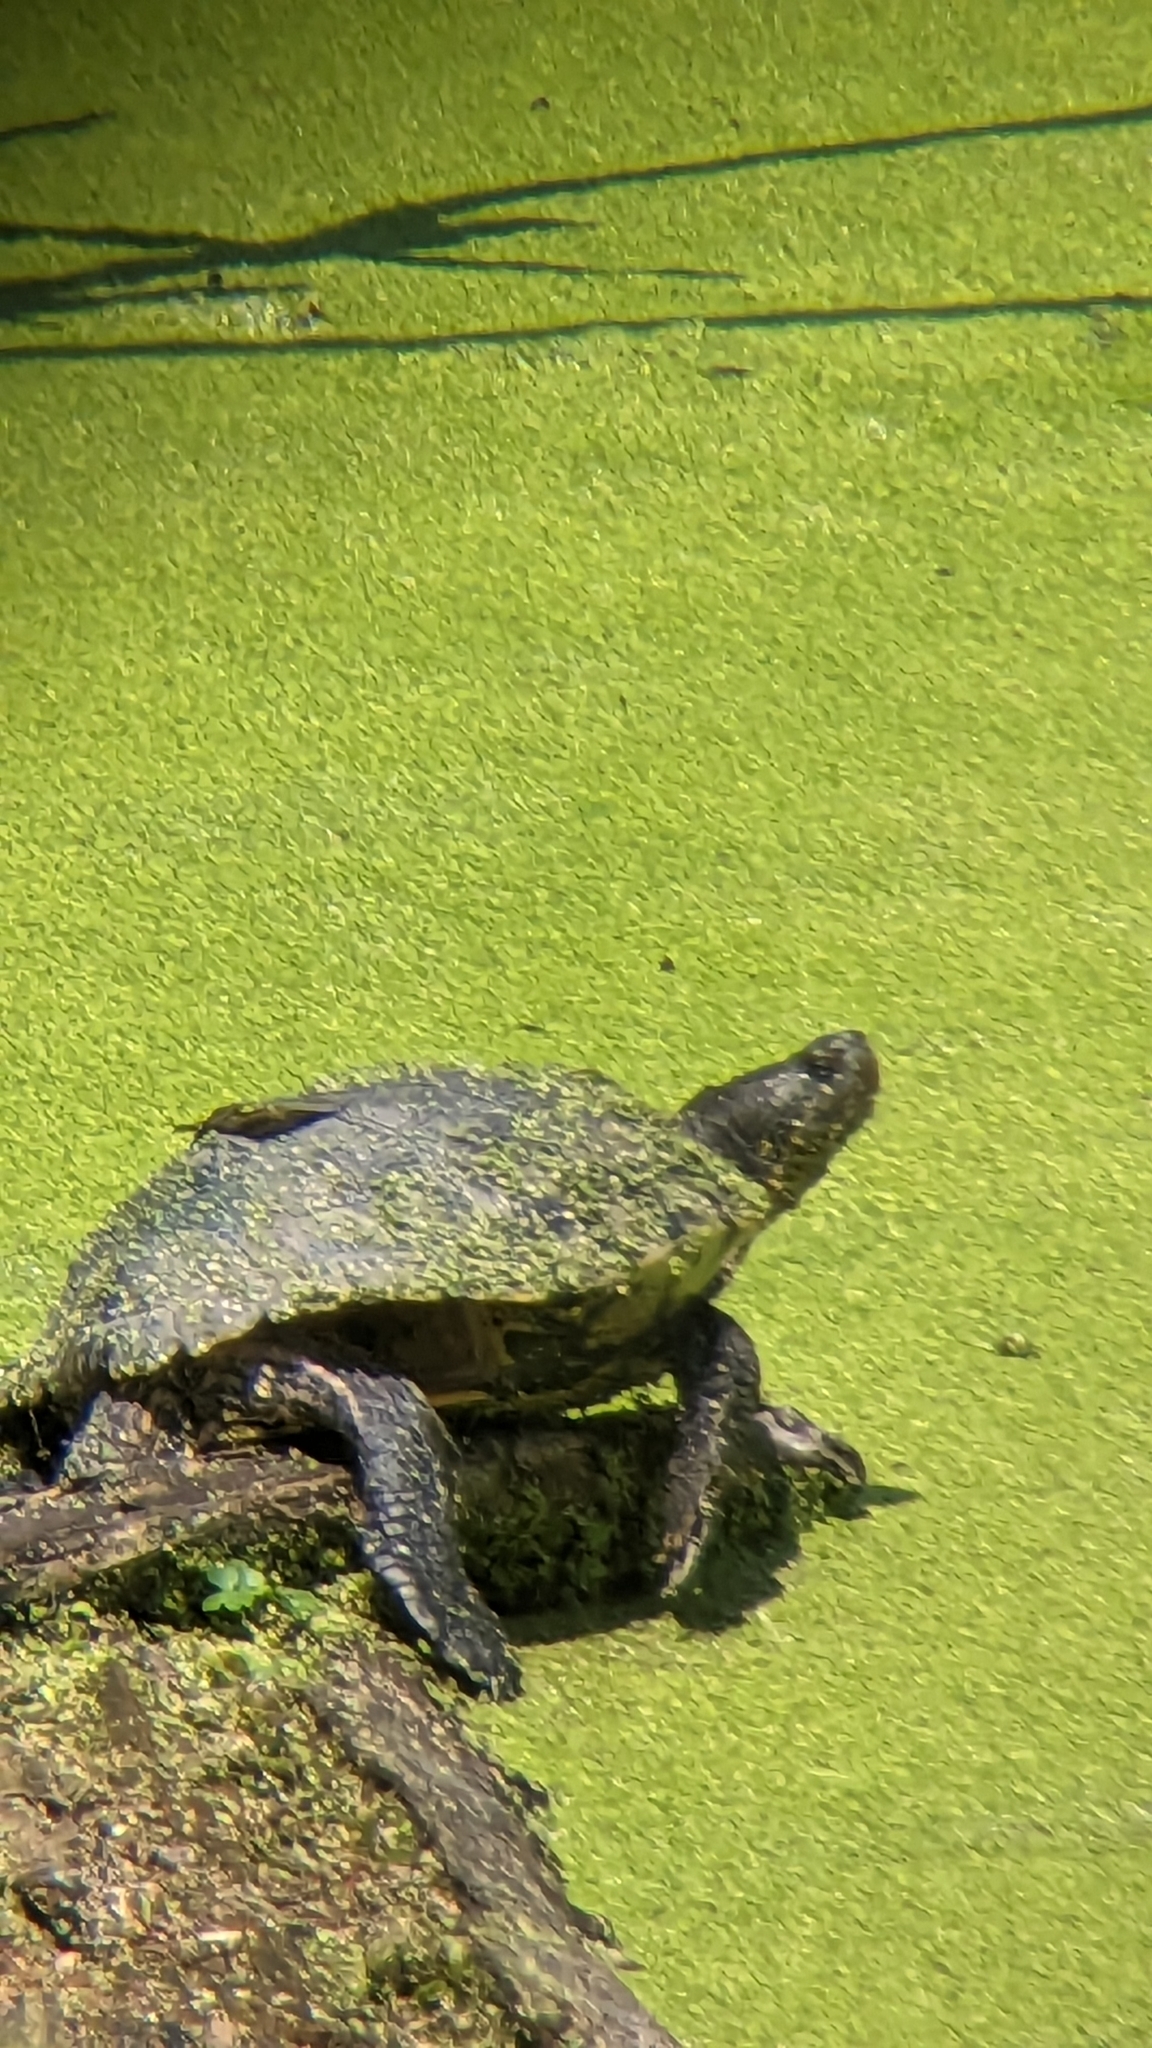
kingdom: Animalia
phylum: Chordata
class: Testudines
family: Emydidae
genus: Trachemys
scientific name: Trachemys scripta
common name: Slider
